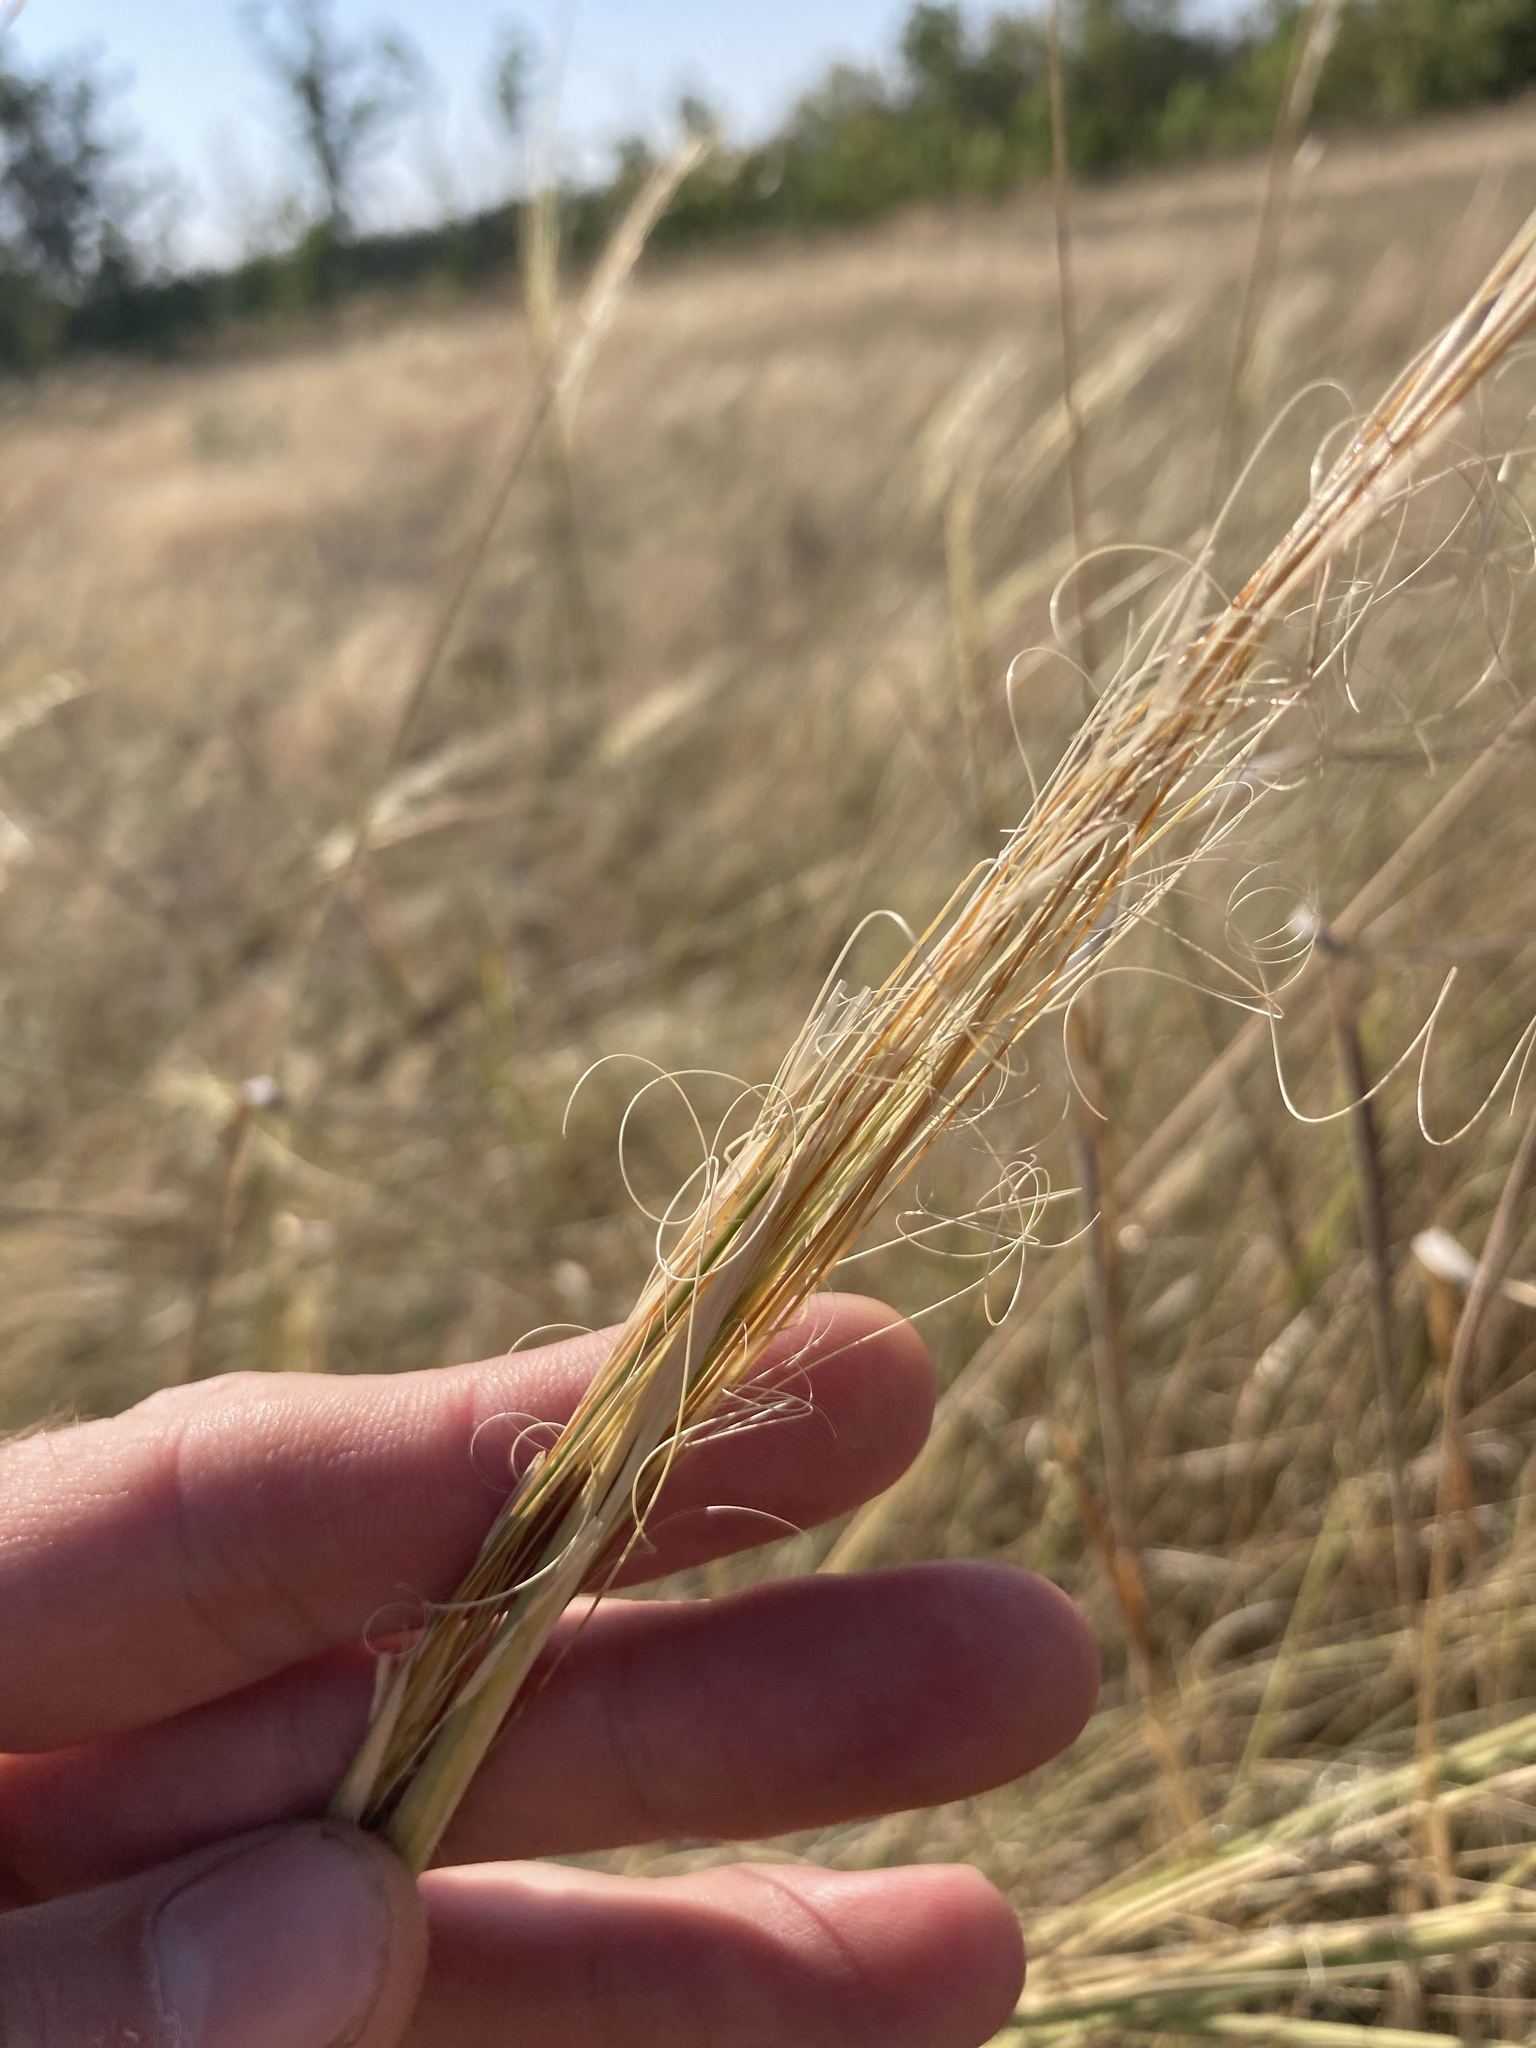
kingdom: Plantae
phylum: Tracheophyta
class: Liliopsida
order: Poales
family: Poaceae
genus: Stipa
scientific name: Stipa capillata
